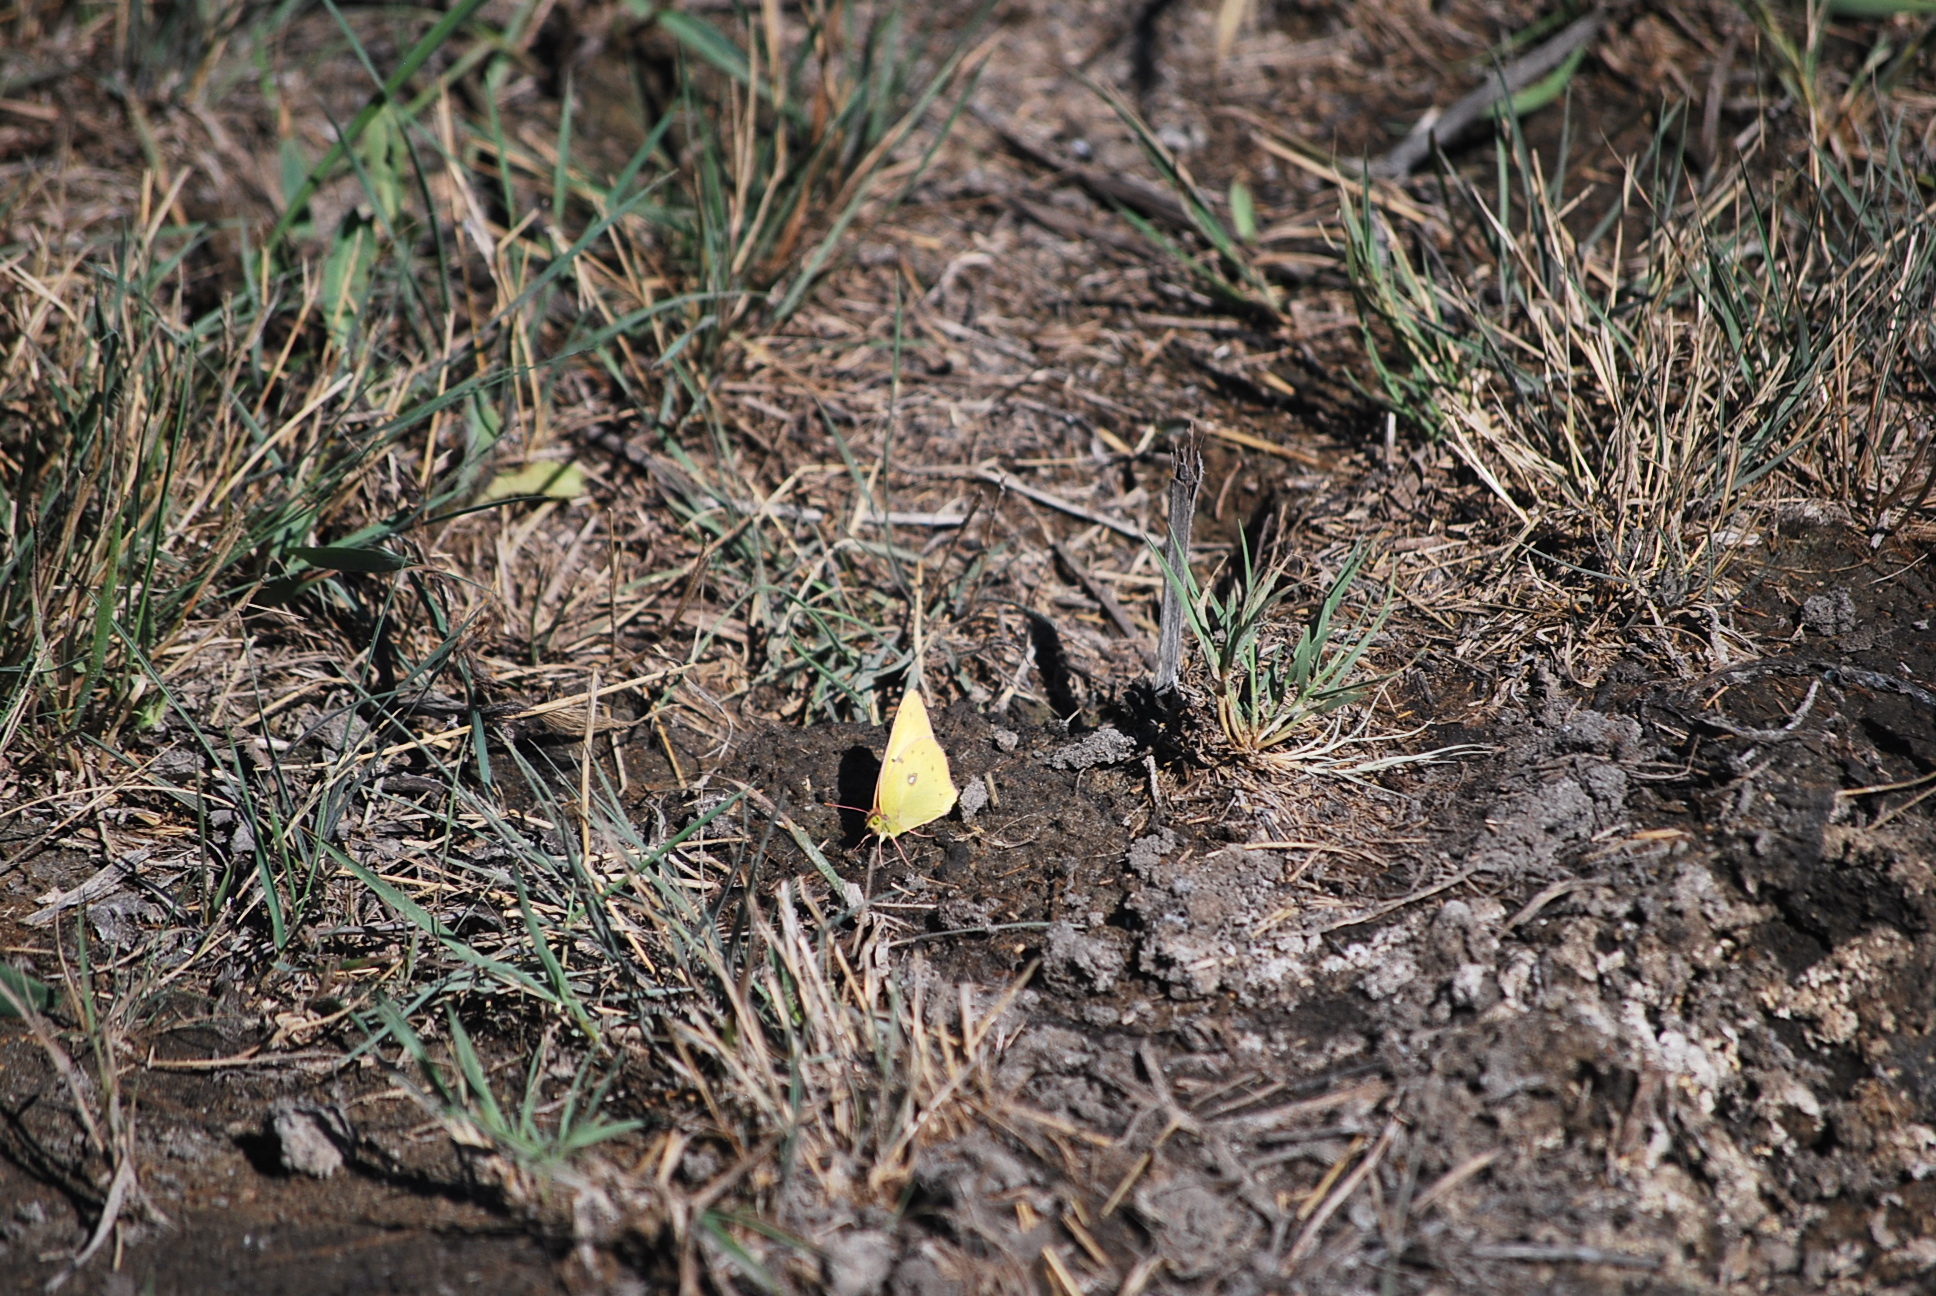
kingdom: Animalia
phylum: Arthropoda
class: Insecta
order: Lepidoptera
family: Pieridae
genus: Colias
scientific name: Colias philodice
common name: Clouded sulphur
